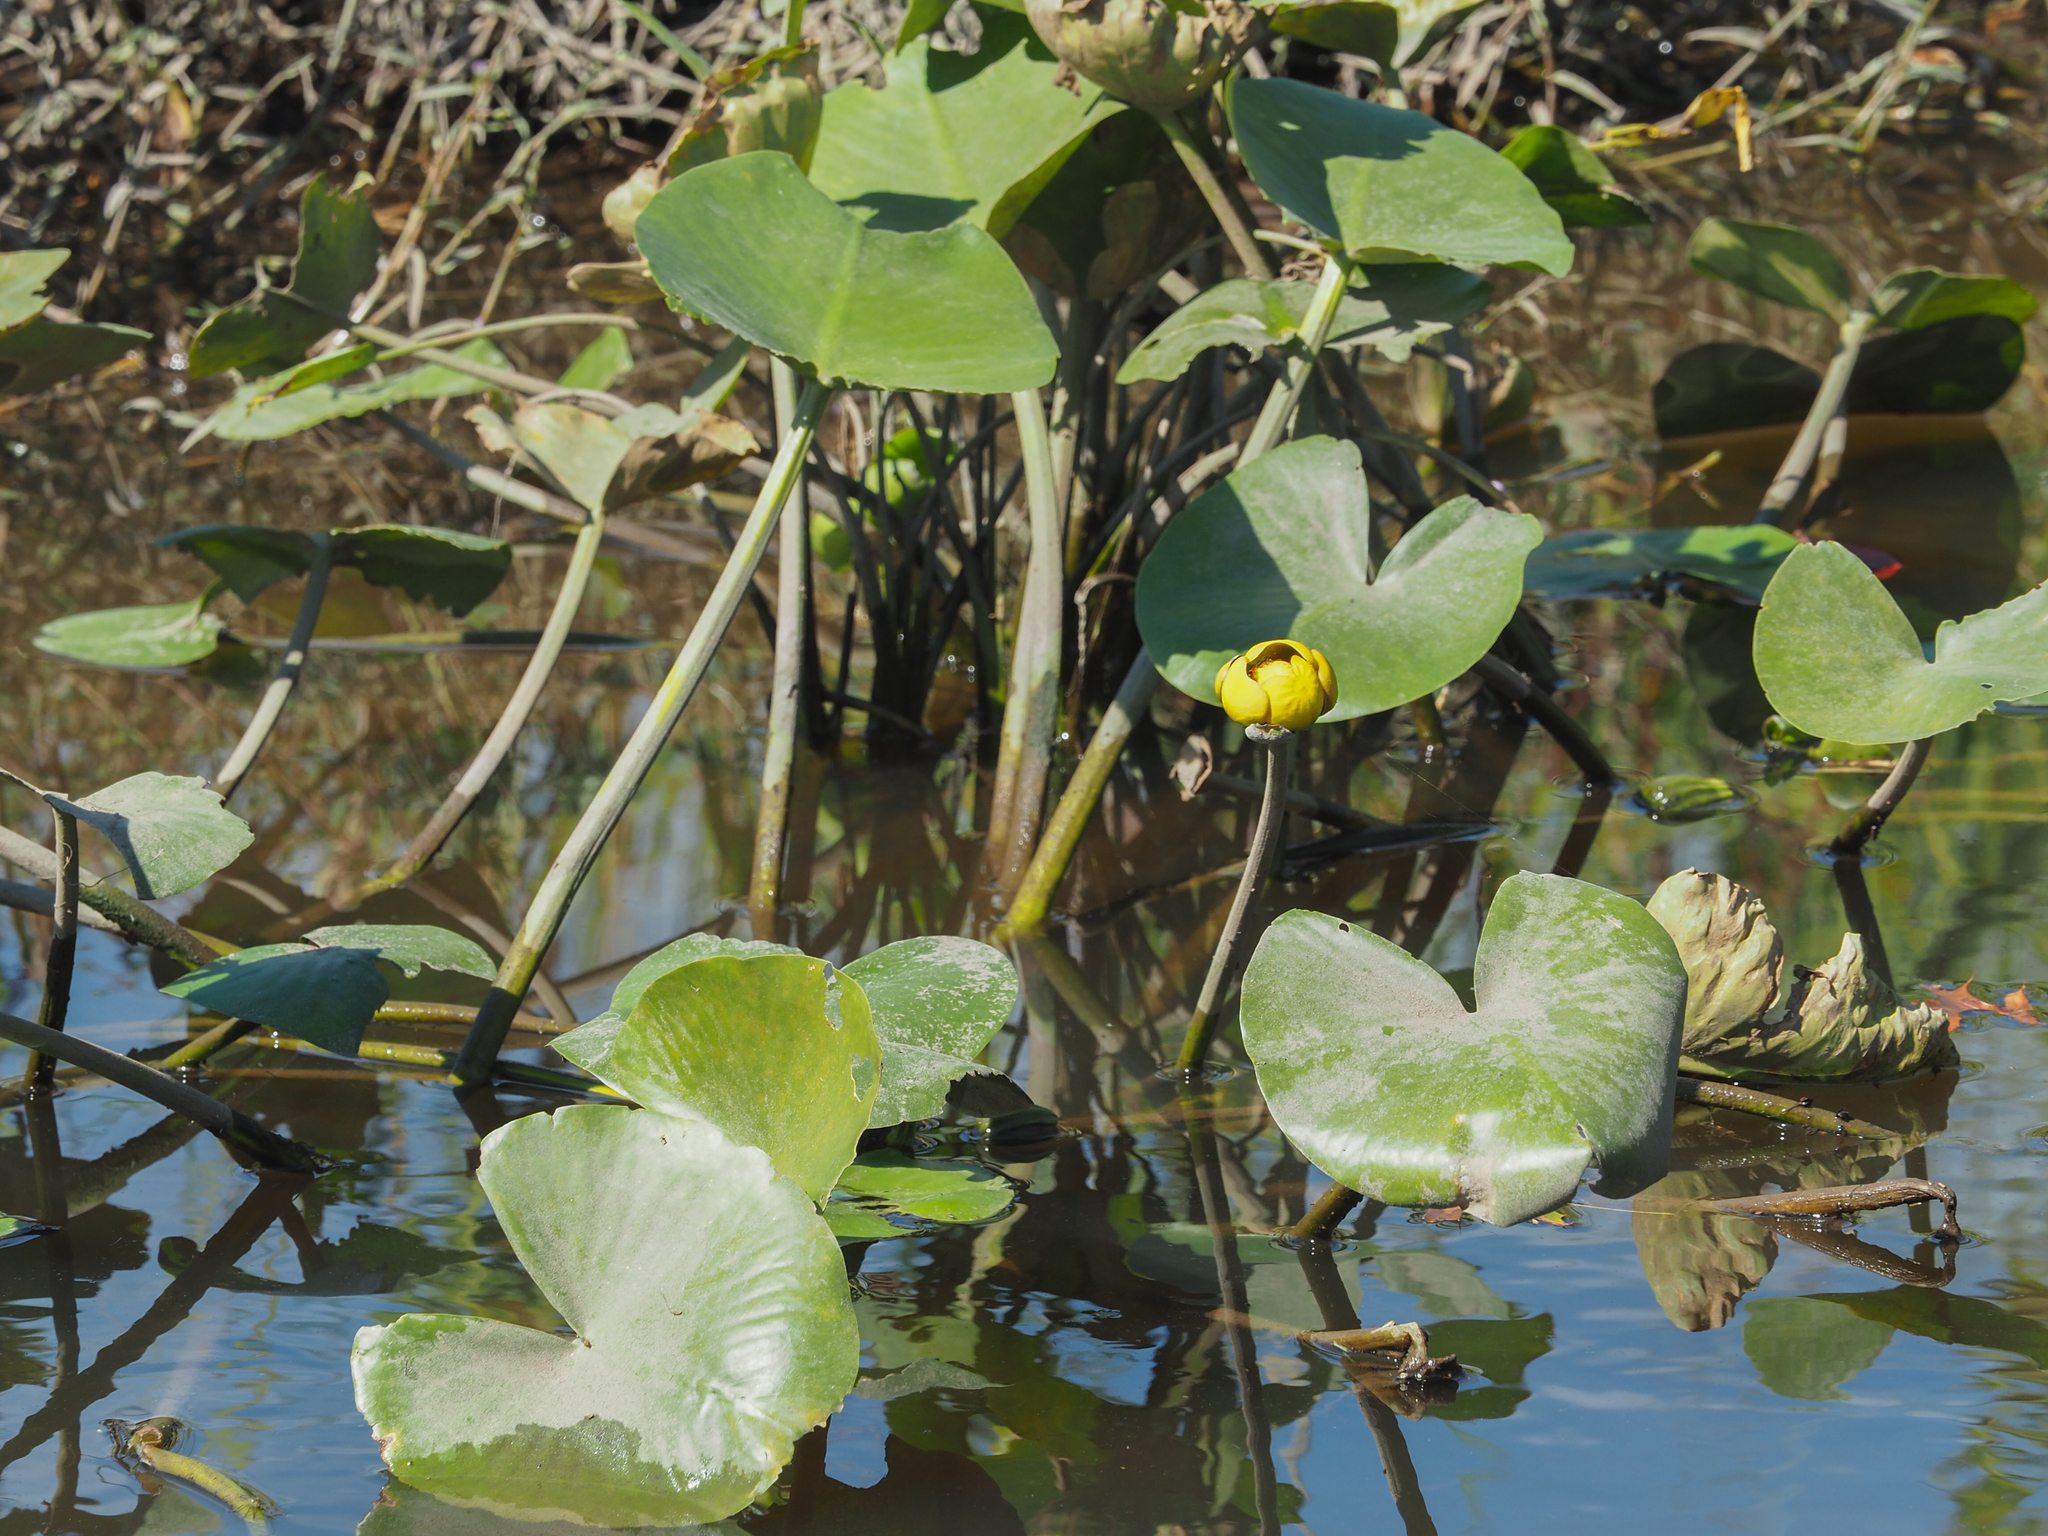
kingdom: Plantae
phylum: Tracheophyta
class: Magnoliopsida
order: Nymphaeales
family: Nymphaeaceae
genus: Nuphar
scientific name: Nuphar advena
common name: Spatter-dock
